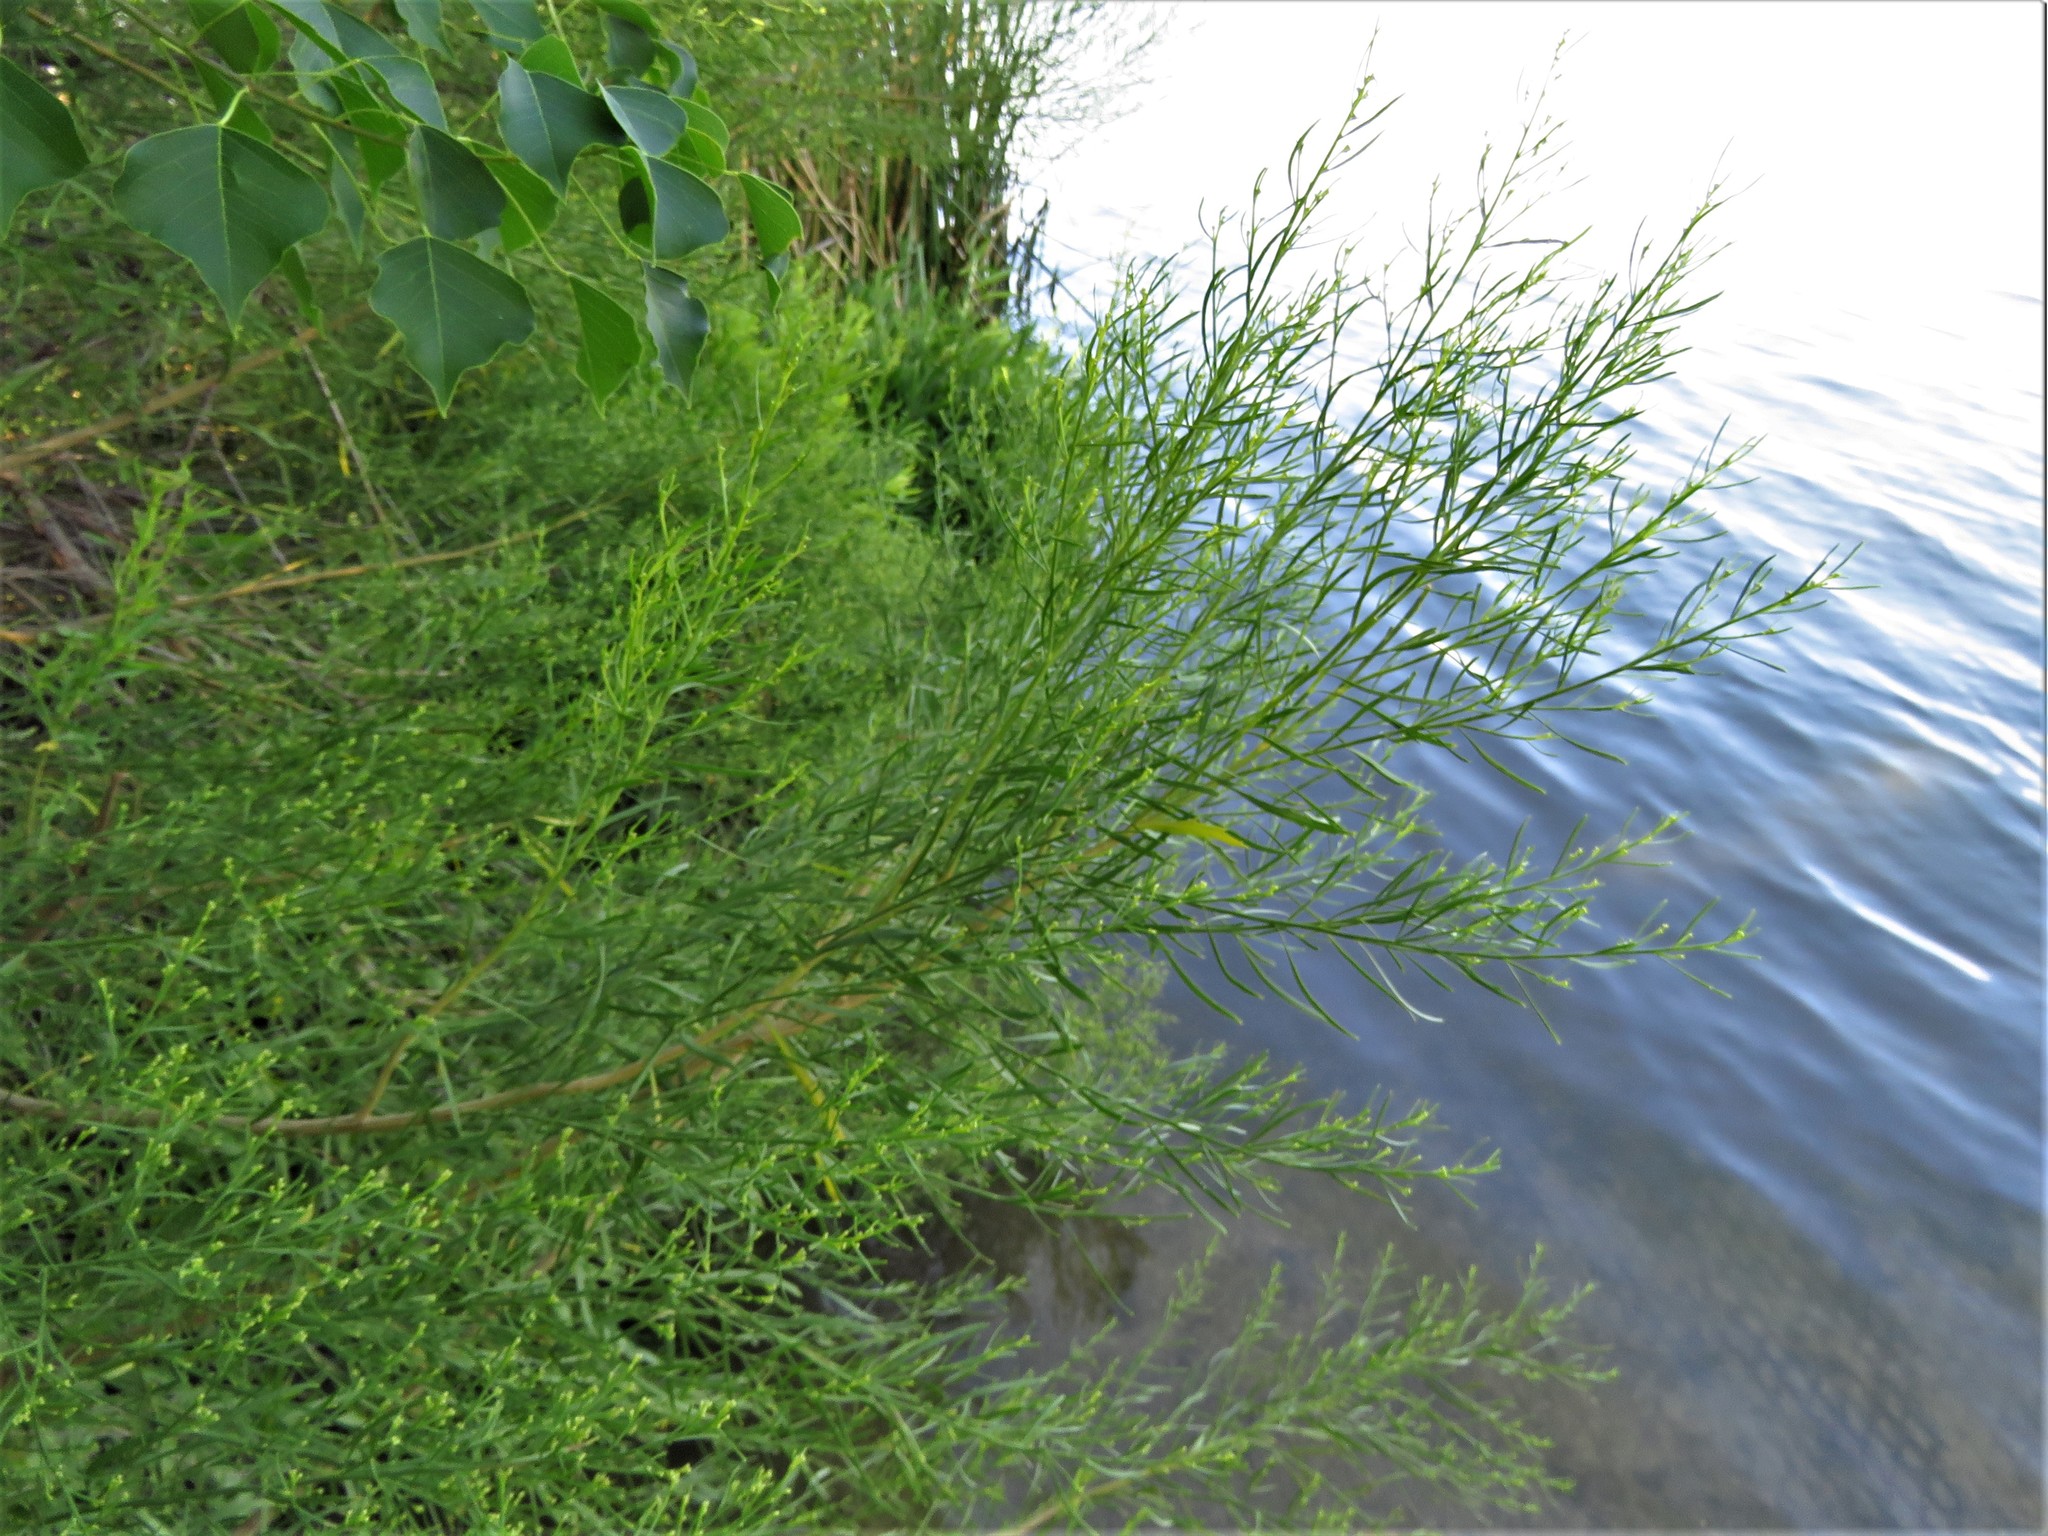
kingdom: Plantae
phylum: Tracheophyta
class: Magnoliopsida
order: Asterales
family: Asteraceae
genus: Baccharis
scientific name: Baccharis neglecta
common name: Roosevelt-weed
